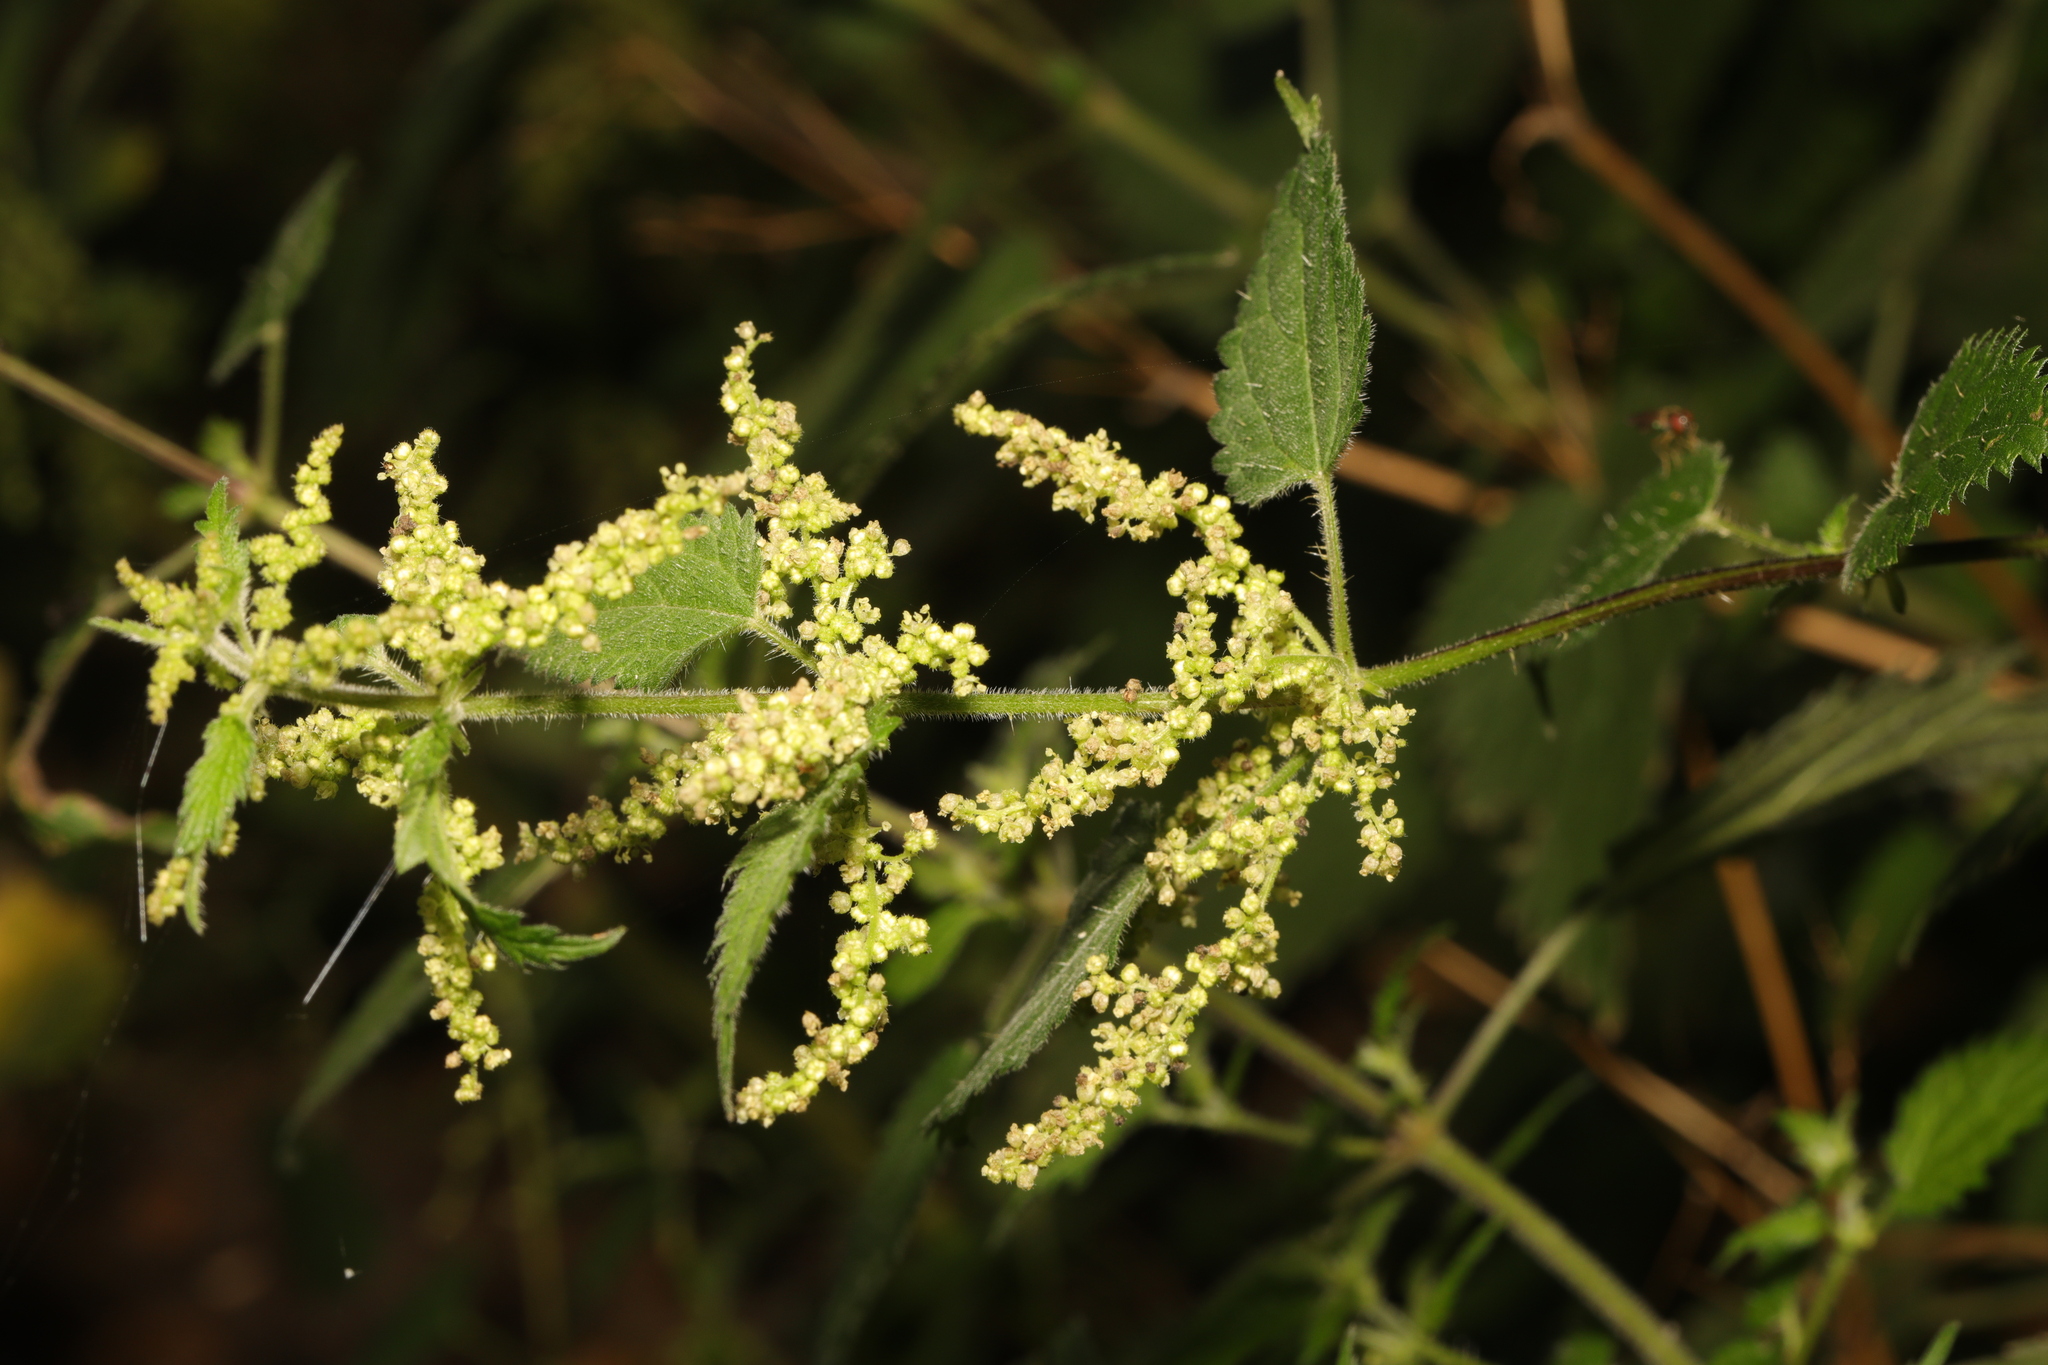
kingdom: Plantae
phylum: Tracheophyta
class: Magnoliopsida
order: Rosales
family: Urticaceae
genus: Urtica
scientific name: Urtica dioica
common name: Common nettle
